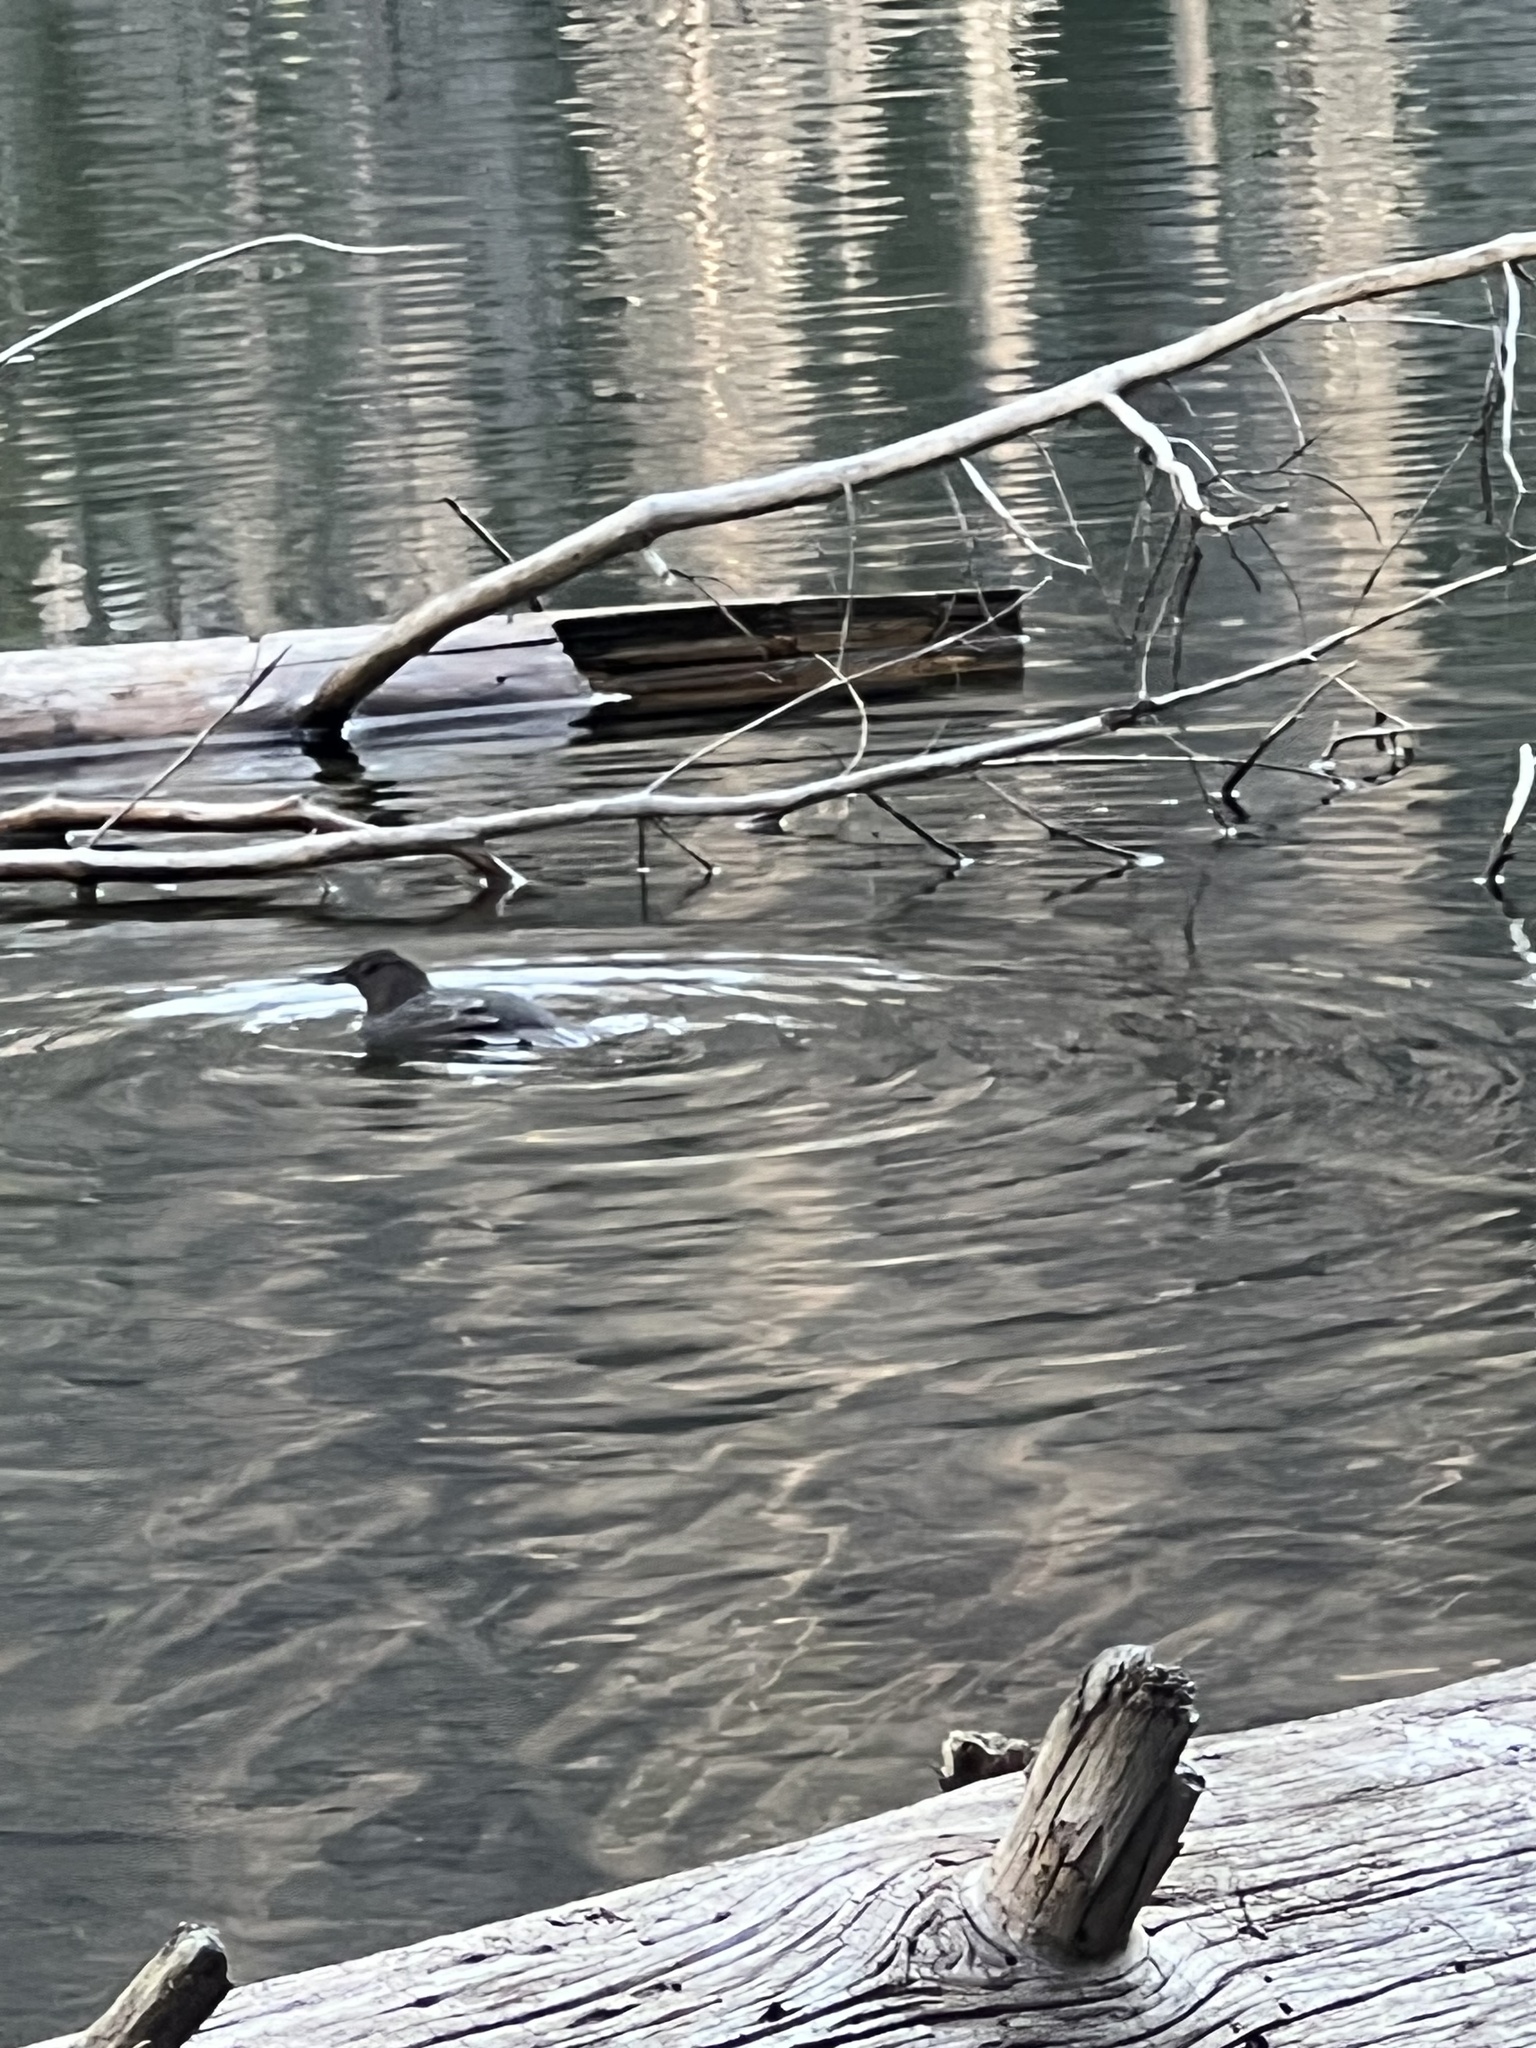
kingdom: Animalia
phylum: Chordata
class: Aves
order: Passeriformes
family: Cinclidae
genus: Cinclus
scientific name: Cinclus mexicanus
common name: American dipper
